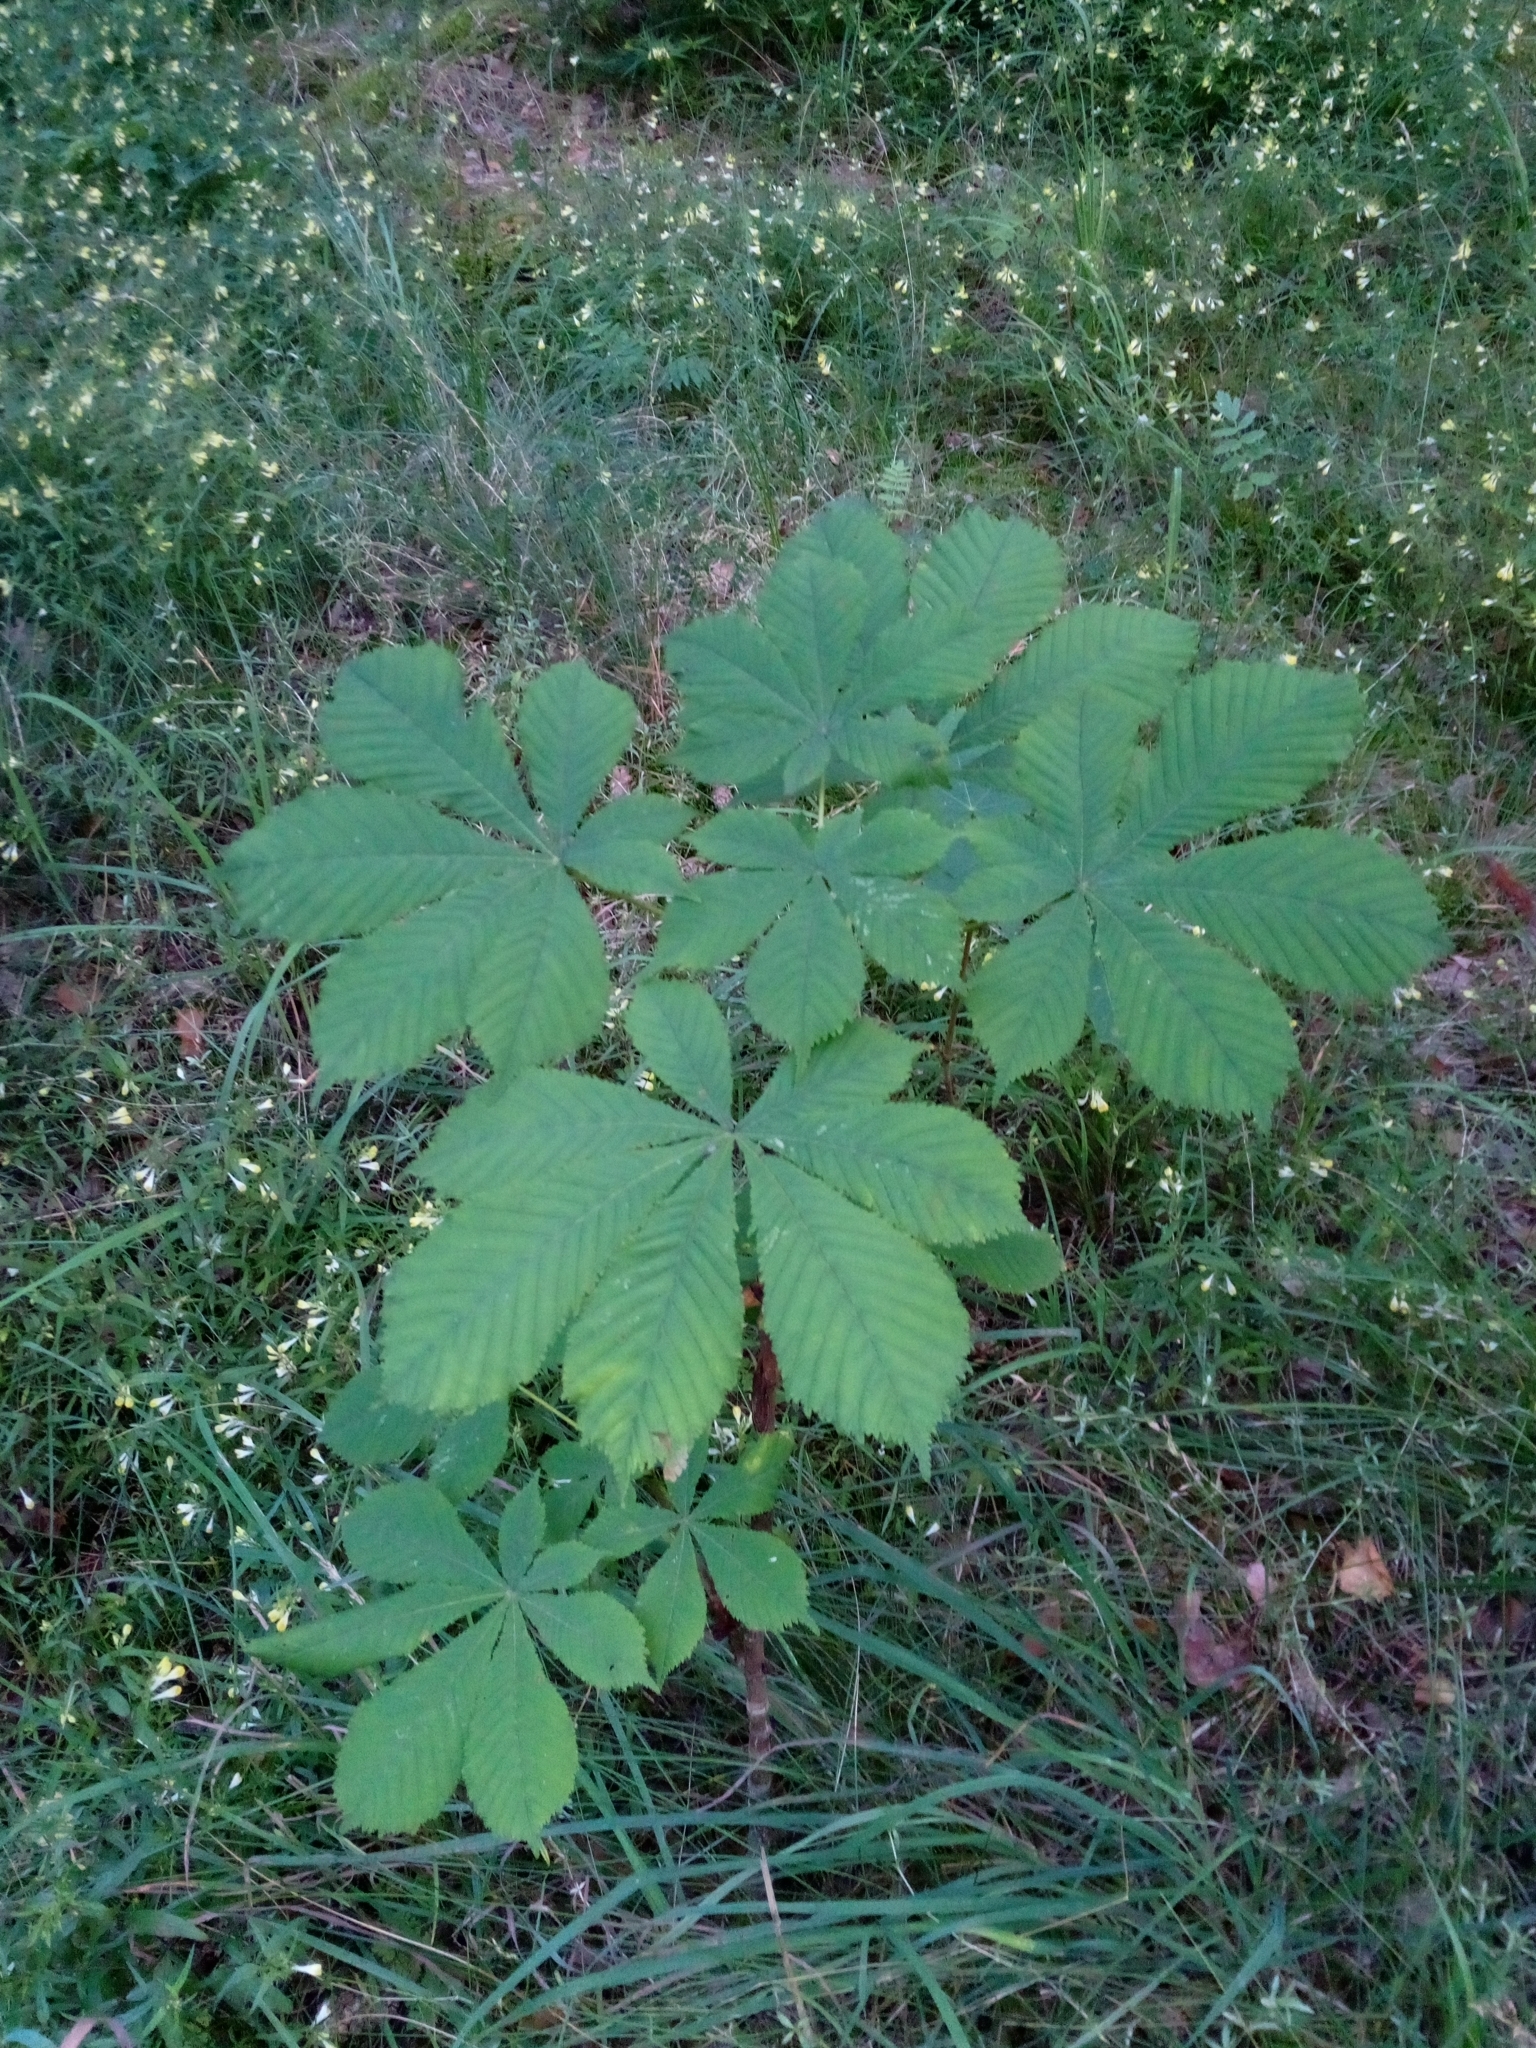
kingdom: Plantae
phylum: Tracheophyta
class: Magnoliopsida
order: Sapindales
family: Sapindaceae
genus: Aesculus
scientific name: Aesculus hippocastanum
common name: Horse-chestnut
